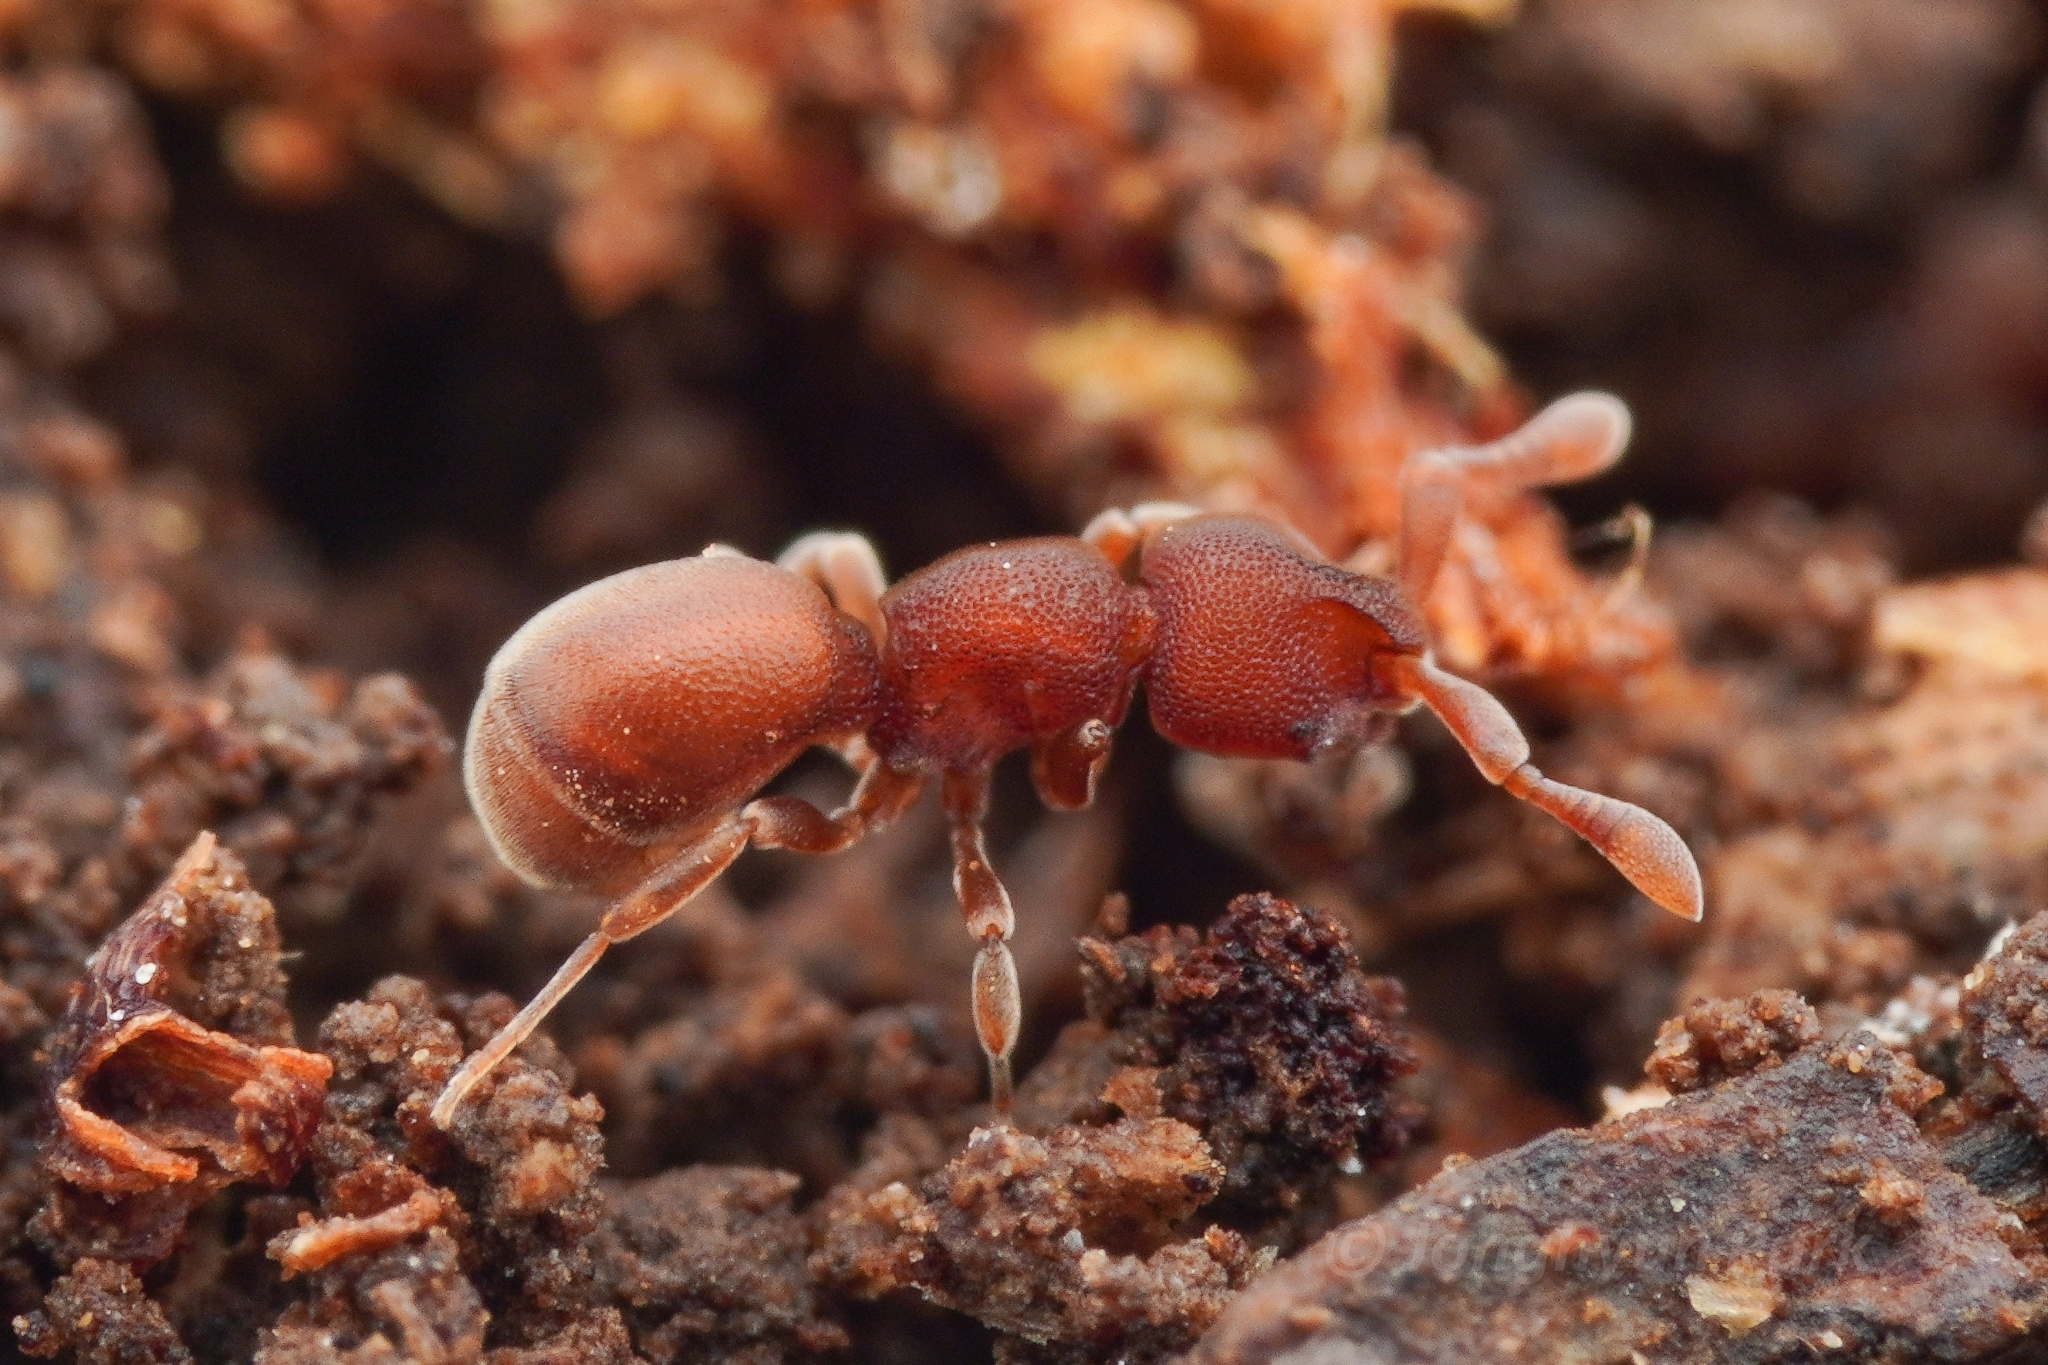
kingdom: Animalia
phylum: Arthropoda
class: Insecta
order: Hymenoptera
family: Formicidae
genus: Discothyrea
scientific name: Discothyrea sauteri
